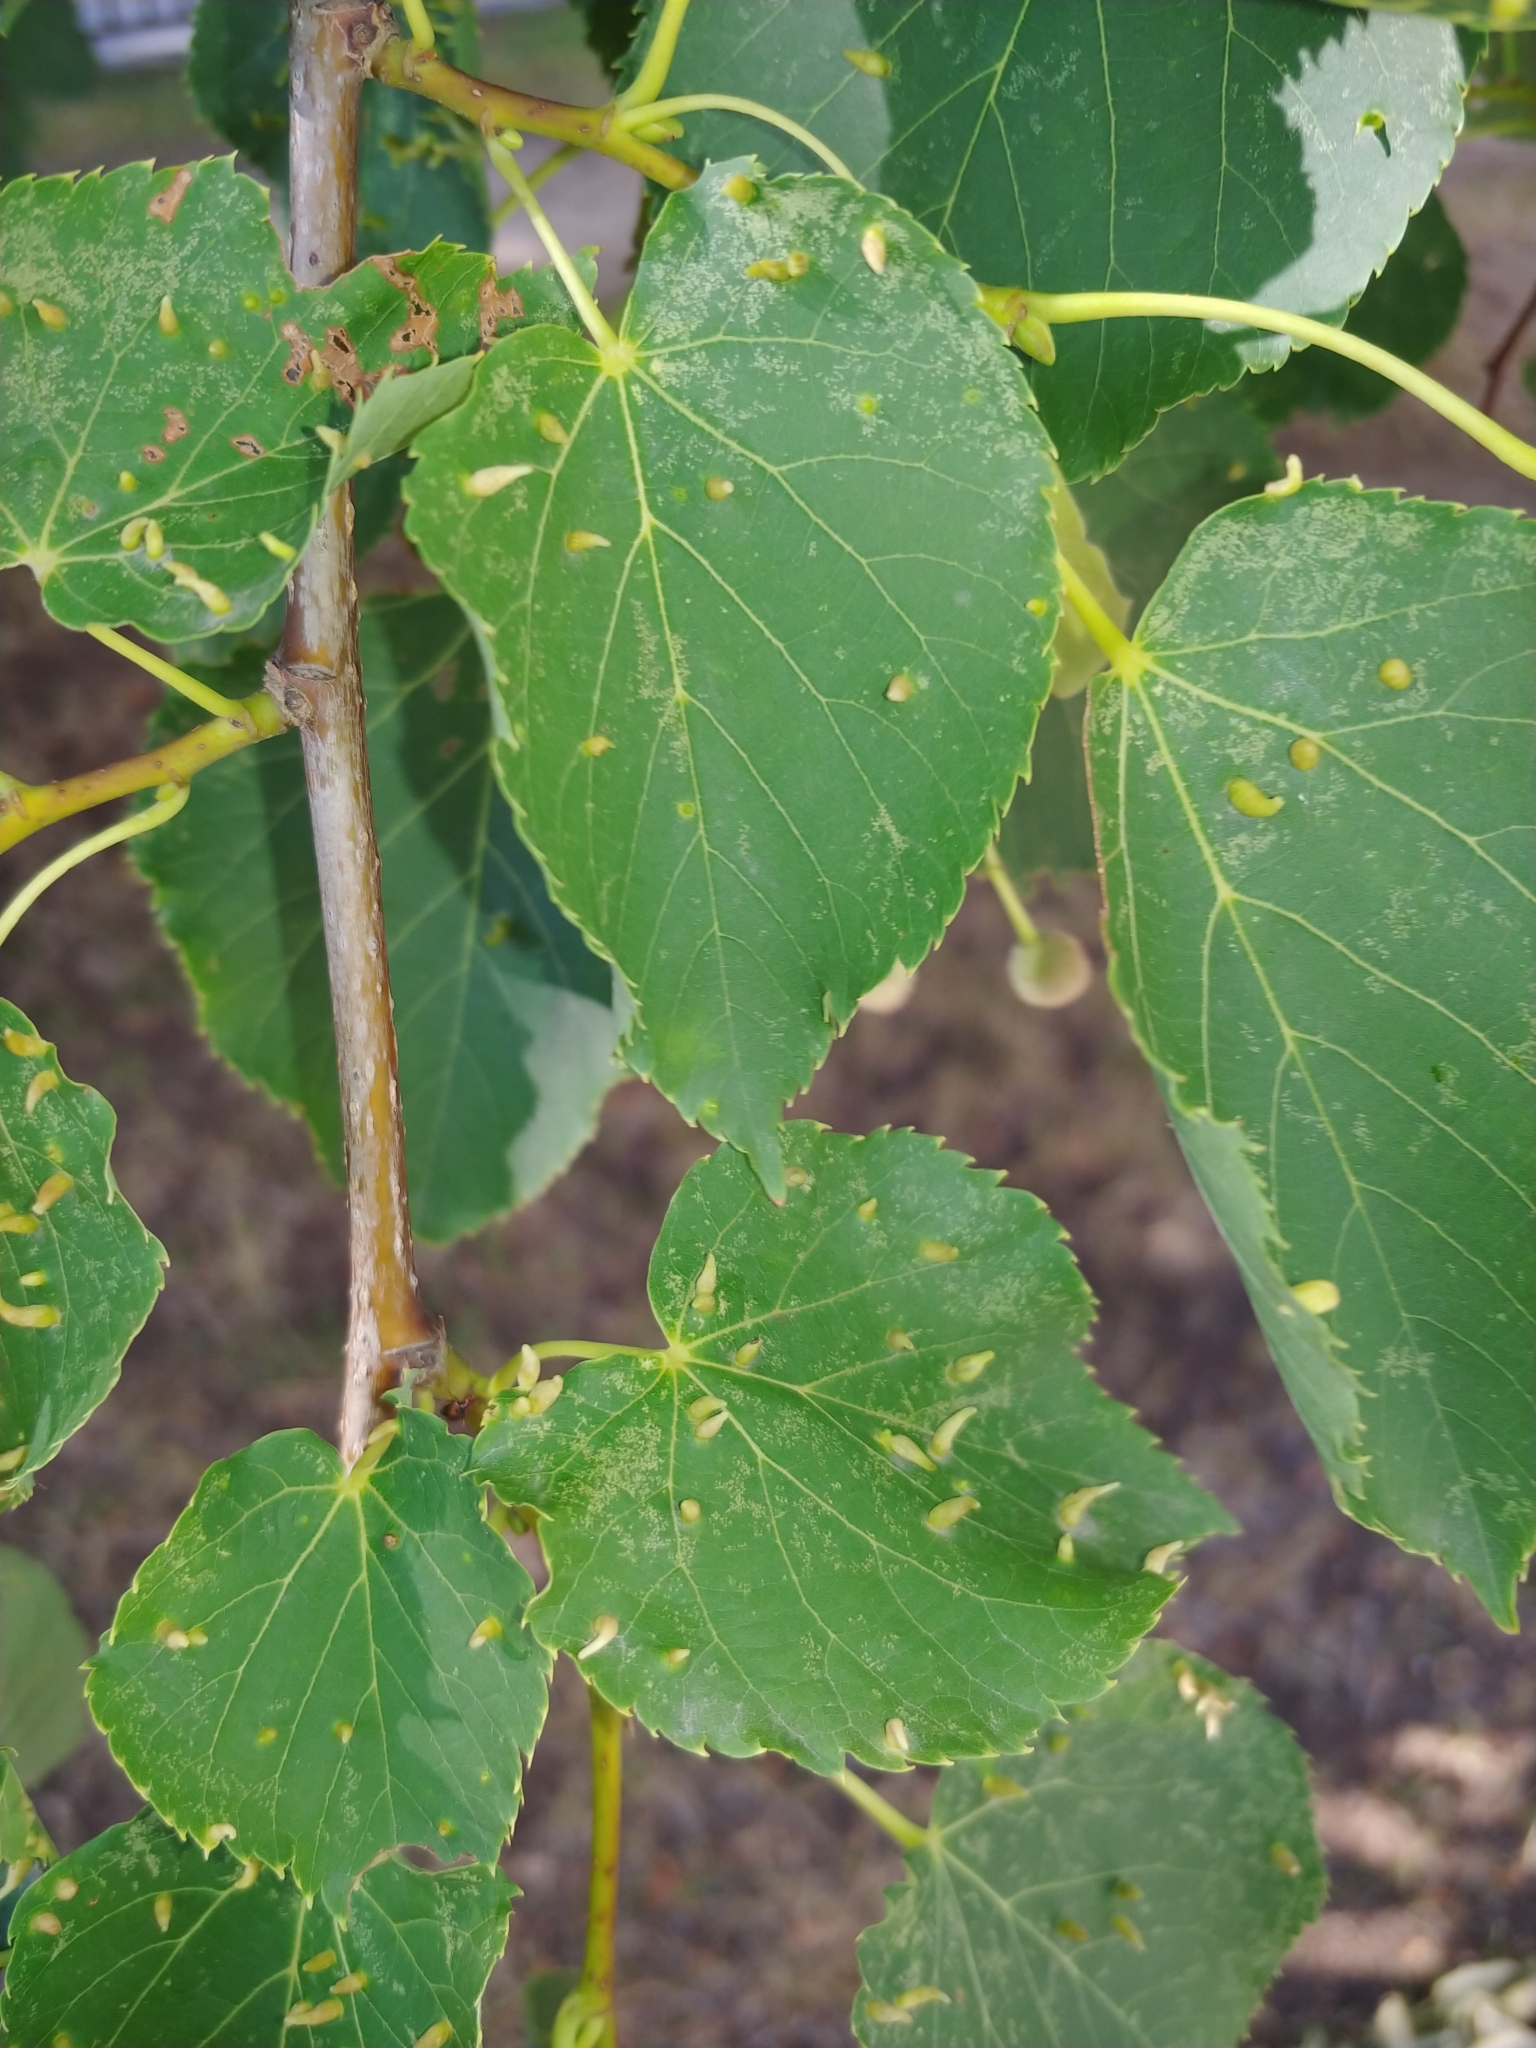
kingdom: Animalia
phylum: Arthropoda
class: Arachnida
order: Trombidiformes
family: Eriophyidae
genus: Eriophyes
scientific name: Eriophyes tiliae
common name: Red nail gall mite
